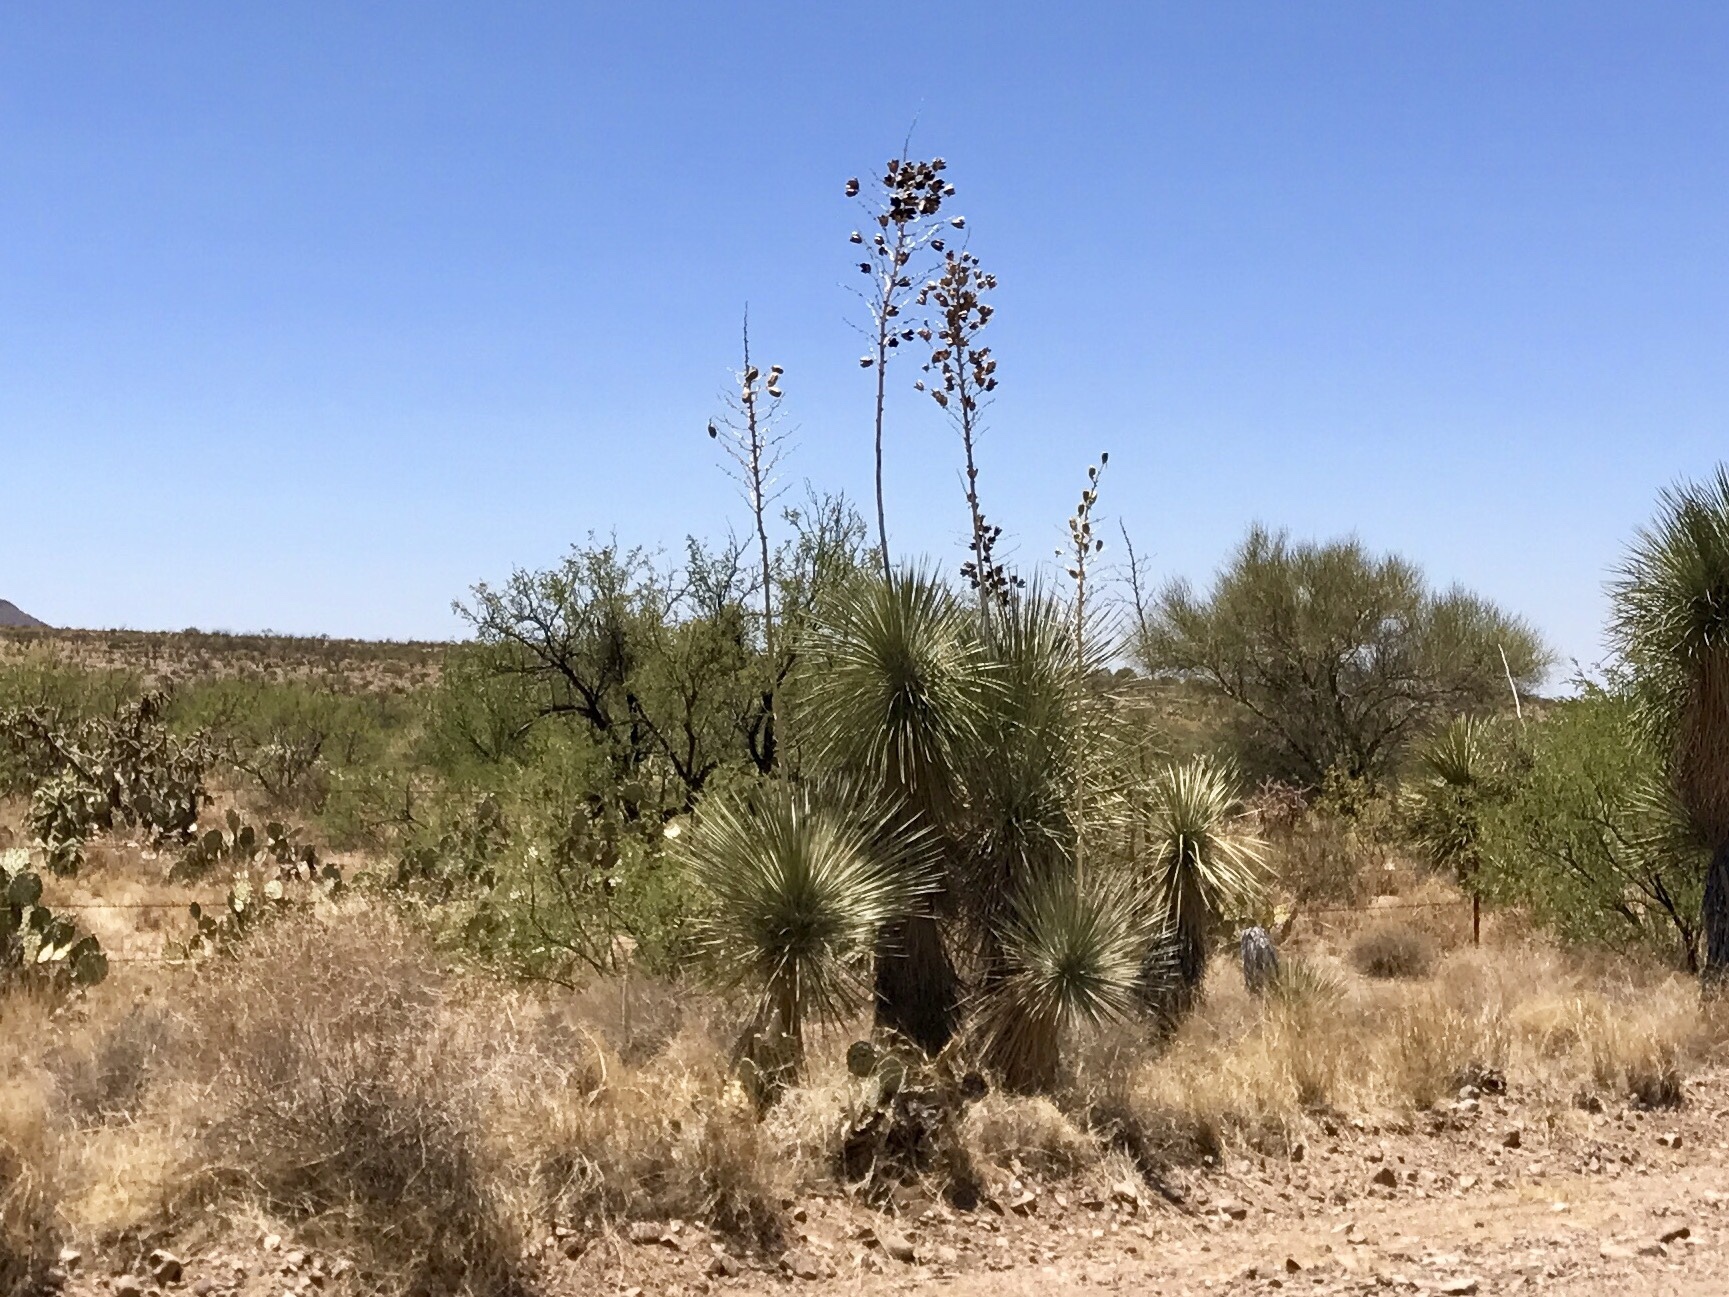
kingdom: Plantae
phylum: Tracheophyta
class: Liliopsida
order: Asparagales
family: Asparagaceae
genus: Yucca
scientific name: Yucca elata
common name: Palmella
